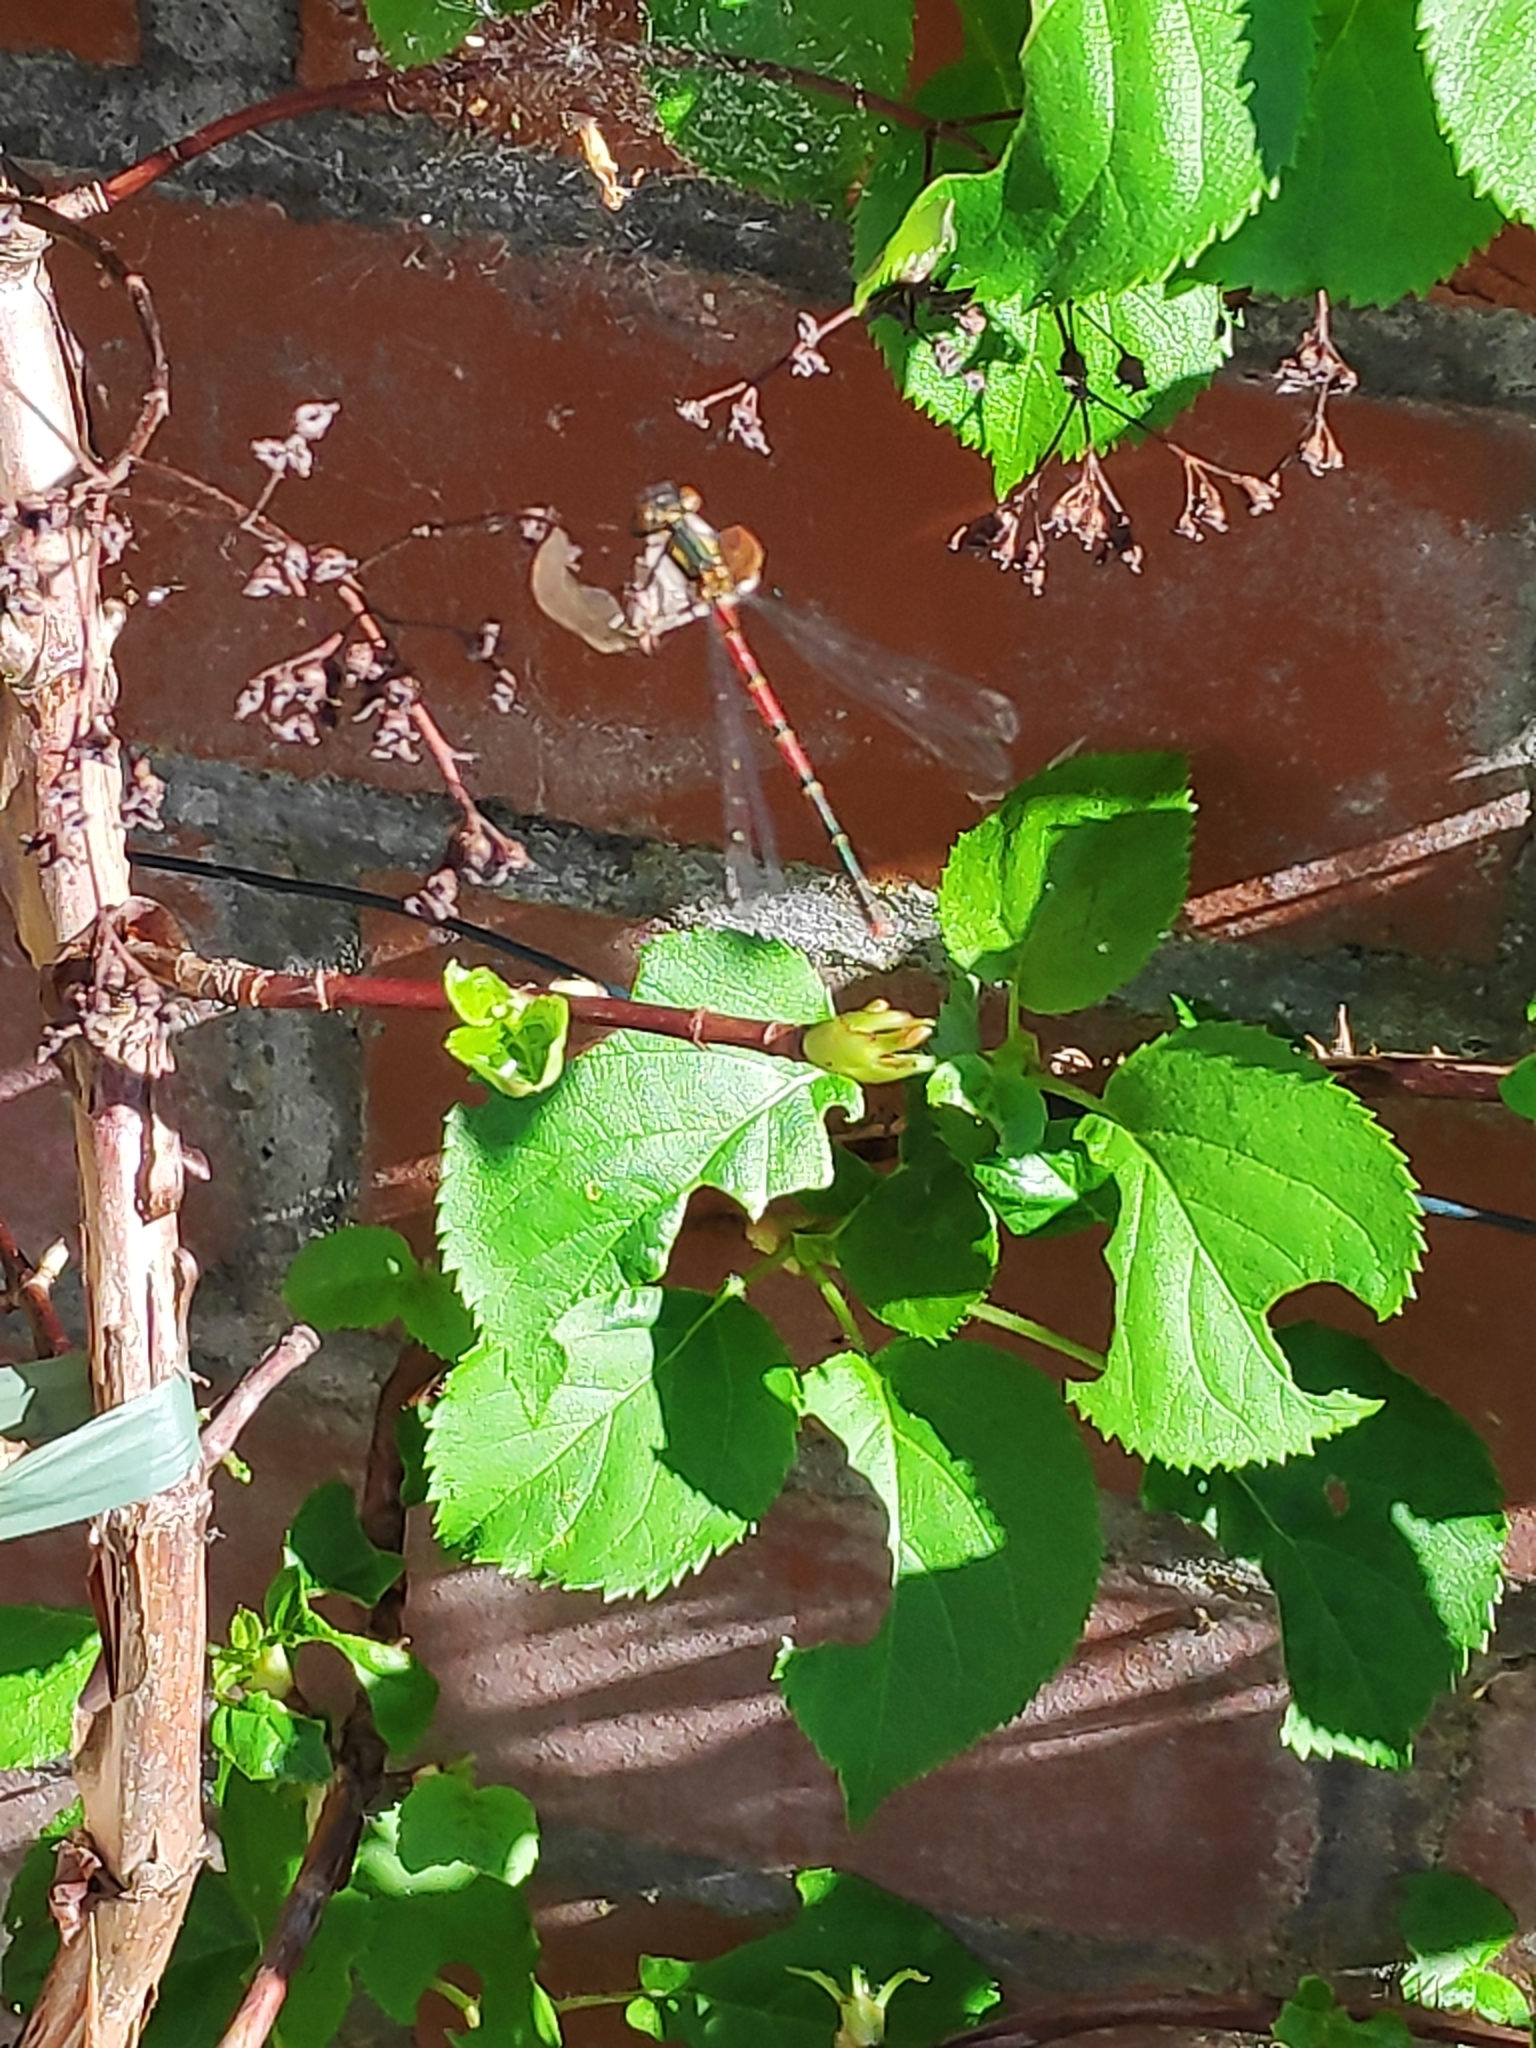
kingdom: Animalia
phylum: Arthropoda
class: Insecta
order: Odonata
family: Coenagrionidae
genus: Pyrrhosoma
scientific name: Pyrrhosoma nymphula
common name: Large red damsel
